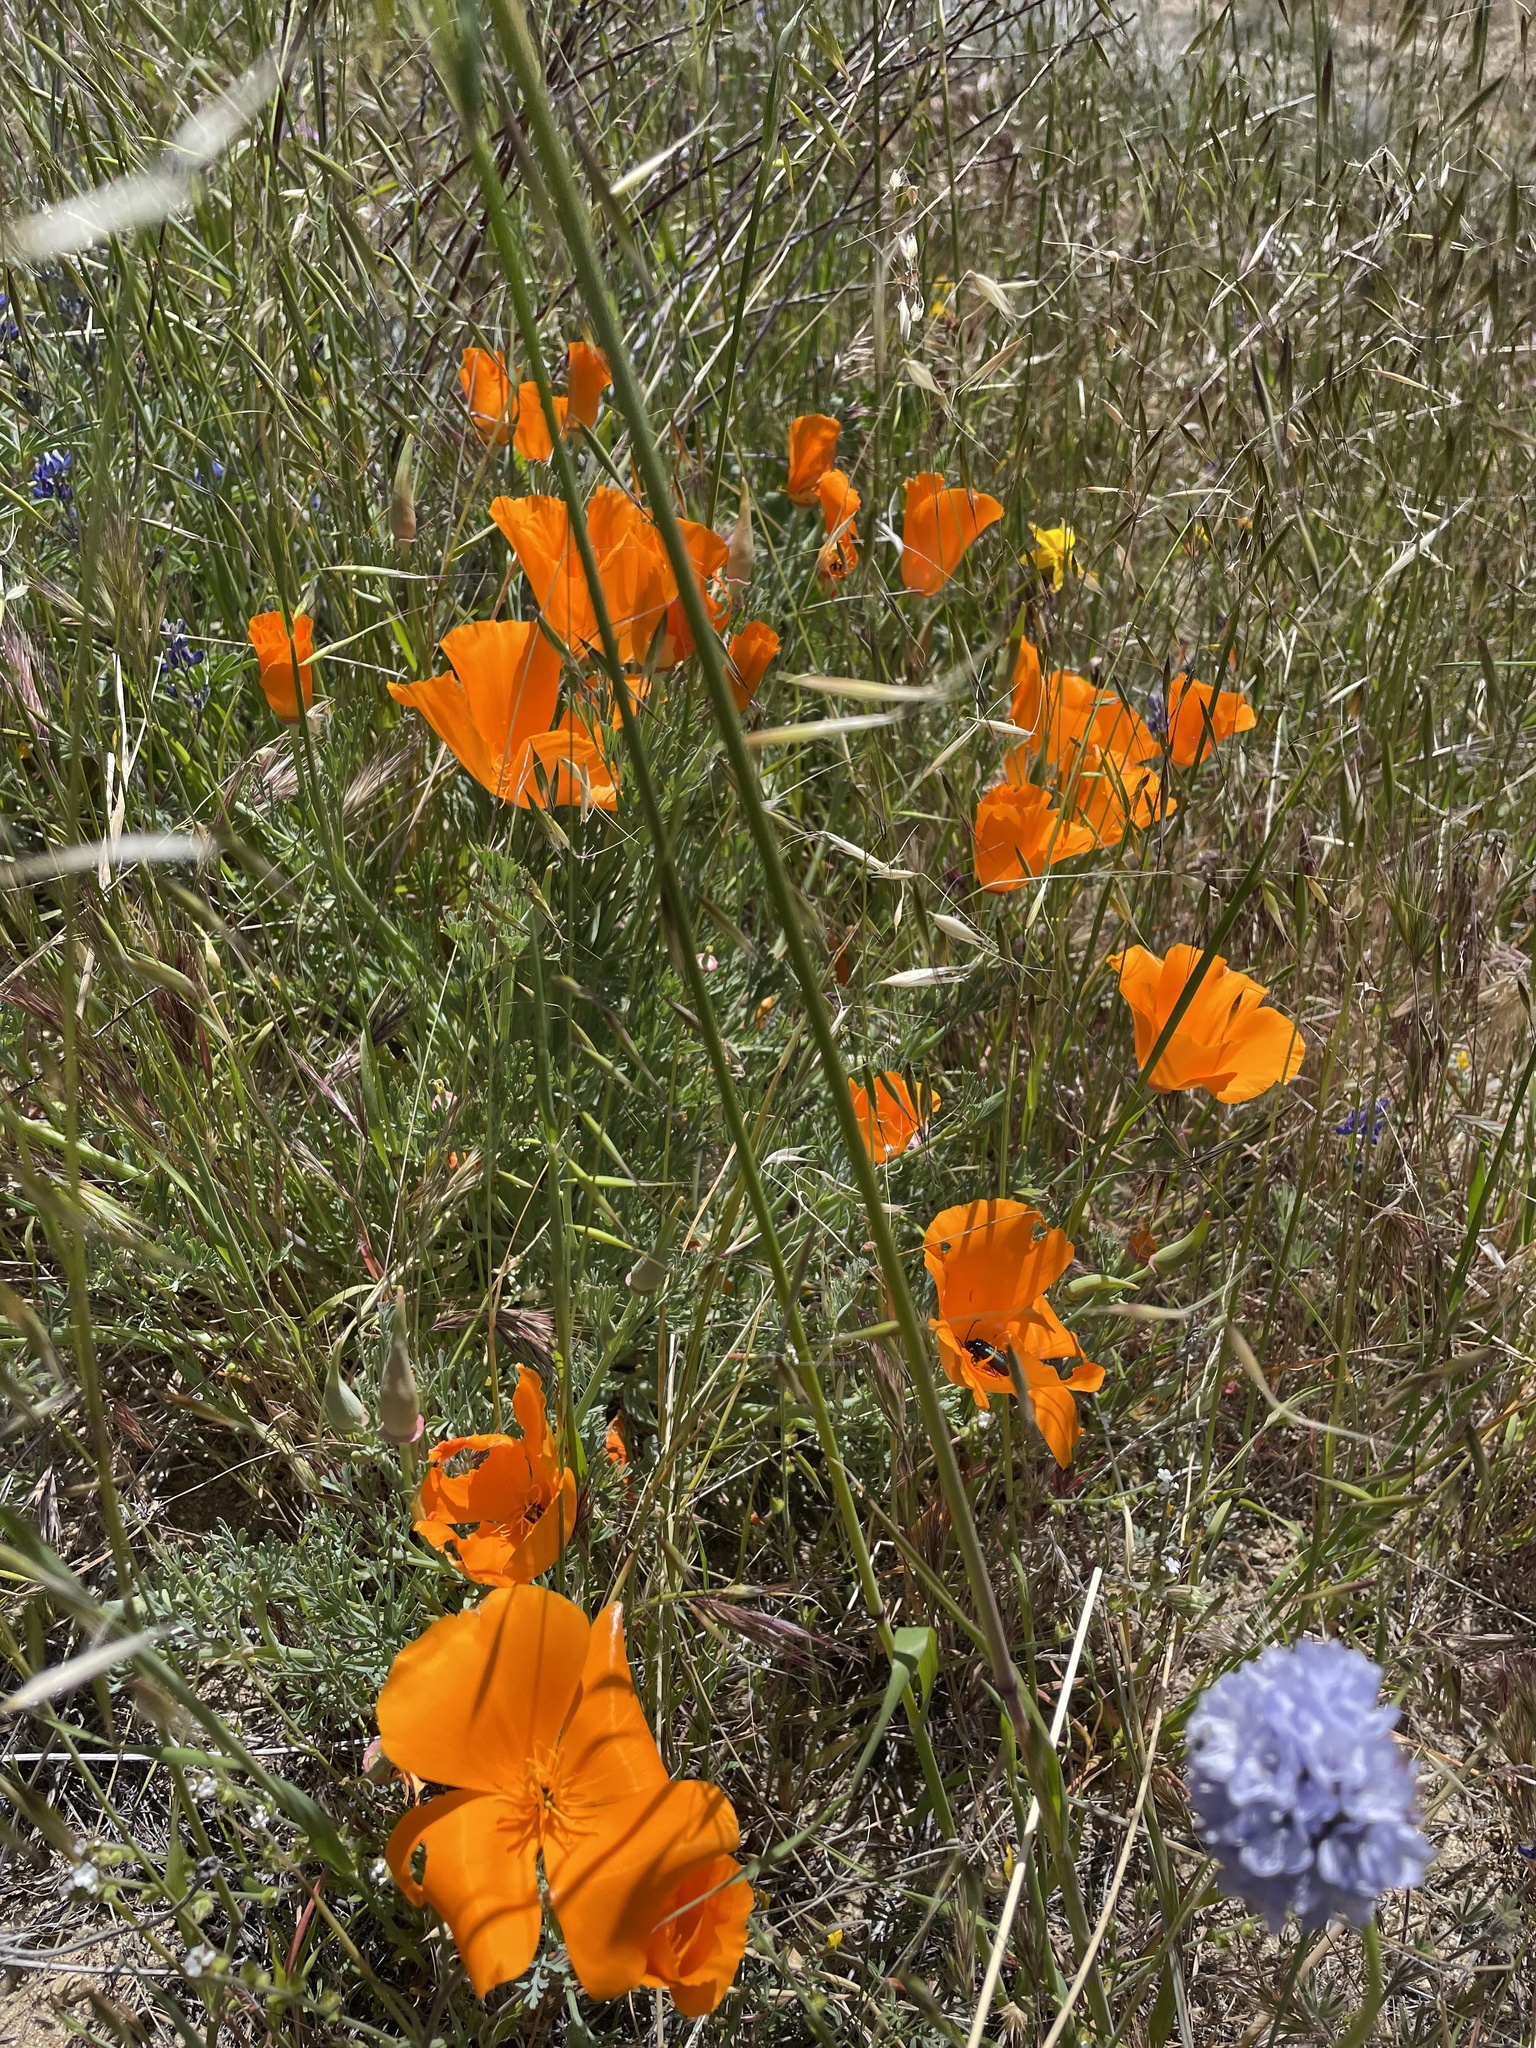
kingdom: Plantae
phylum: Tracheophyta
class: Magnoliopsida
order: Ranunculales
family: Papaveraceae
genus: Eschscholzia
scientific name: Eschscholzia californica
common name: California poppy
